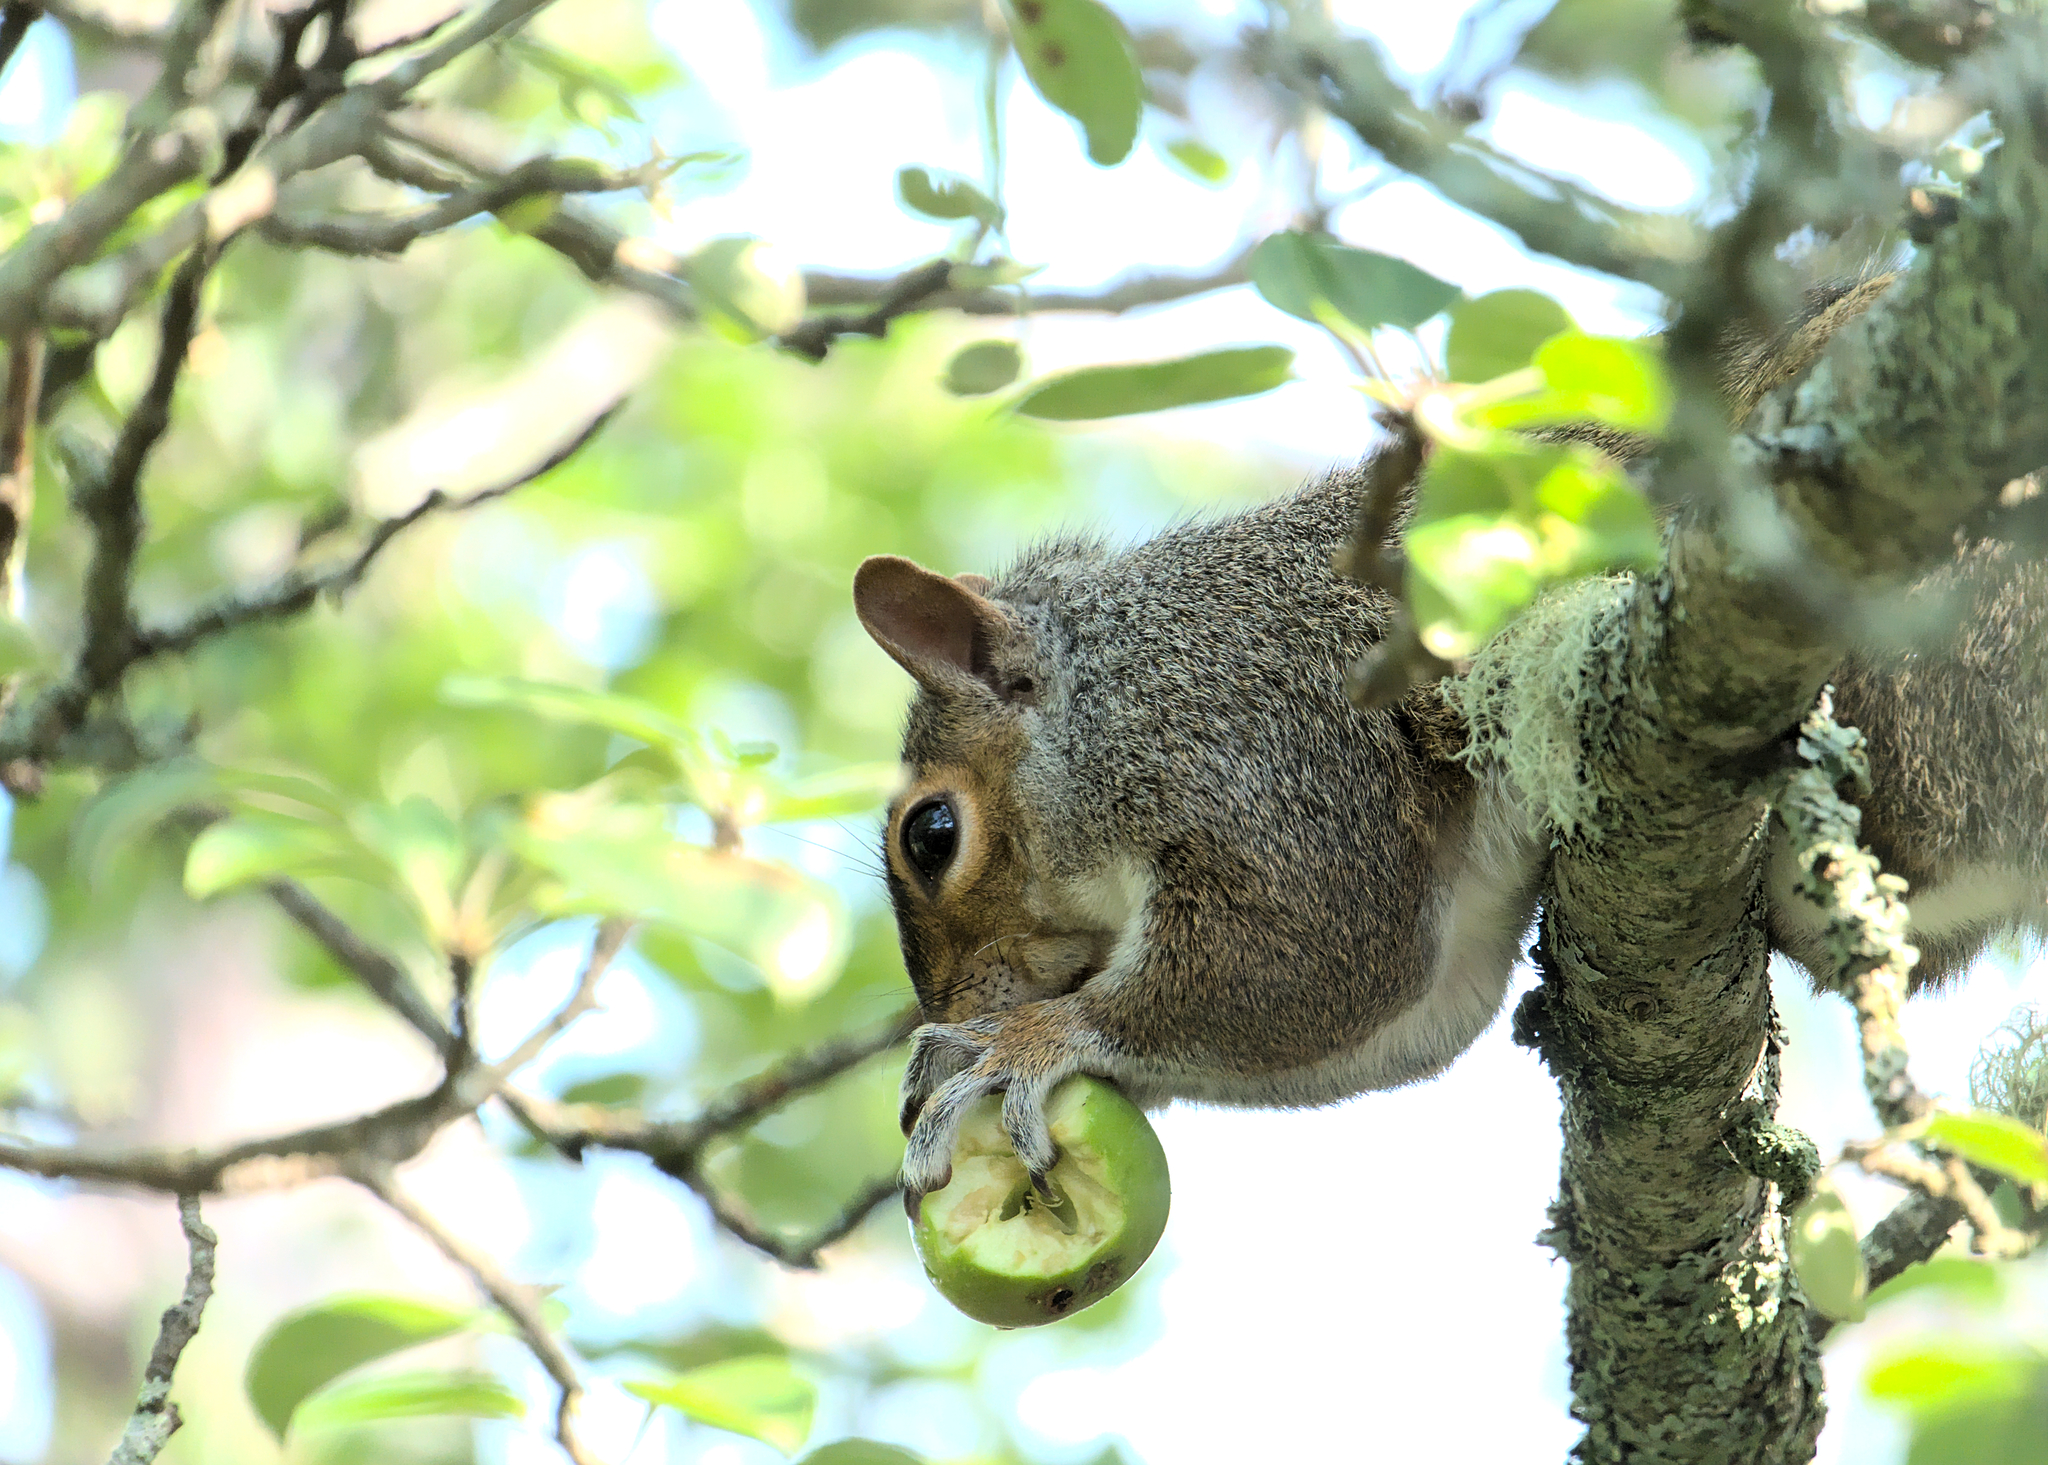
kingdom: Animalia
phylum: Chordata
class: Mammalia
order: Rodentia
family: Sciuridae
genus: Sciurus
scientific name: Sciurus carolinensis
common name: Eastern gray squirrel
